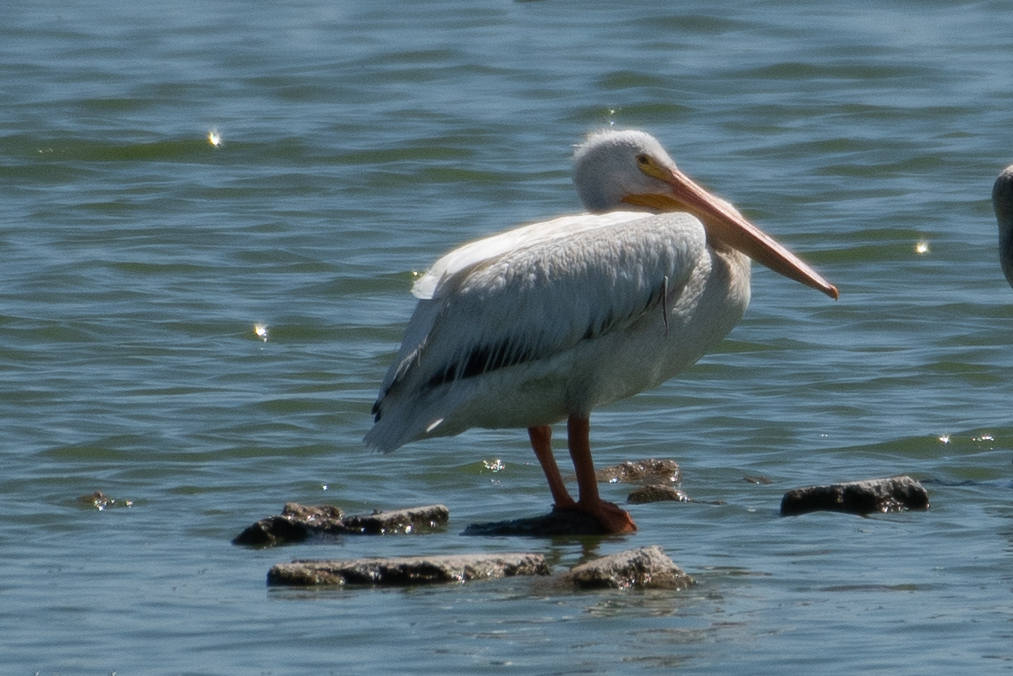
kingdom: Animalia
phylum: Chordata
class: Aves
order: Pelecaniformes
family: Pelecanidae
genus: Pelecanus
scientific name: Pelecanus erythrorhynchos
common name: American white pelican
